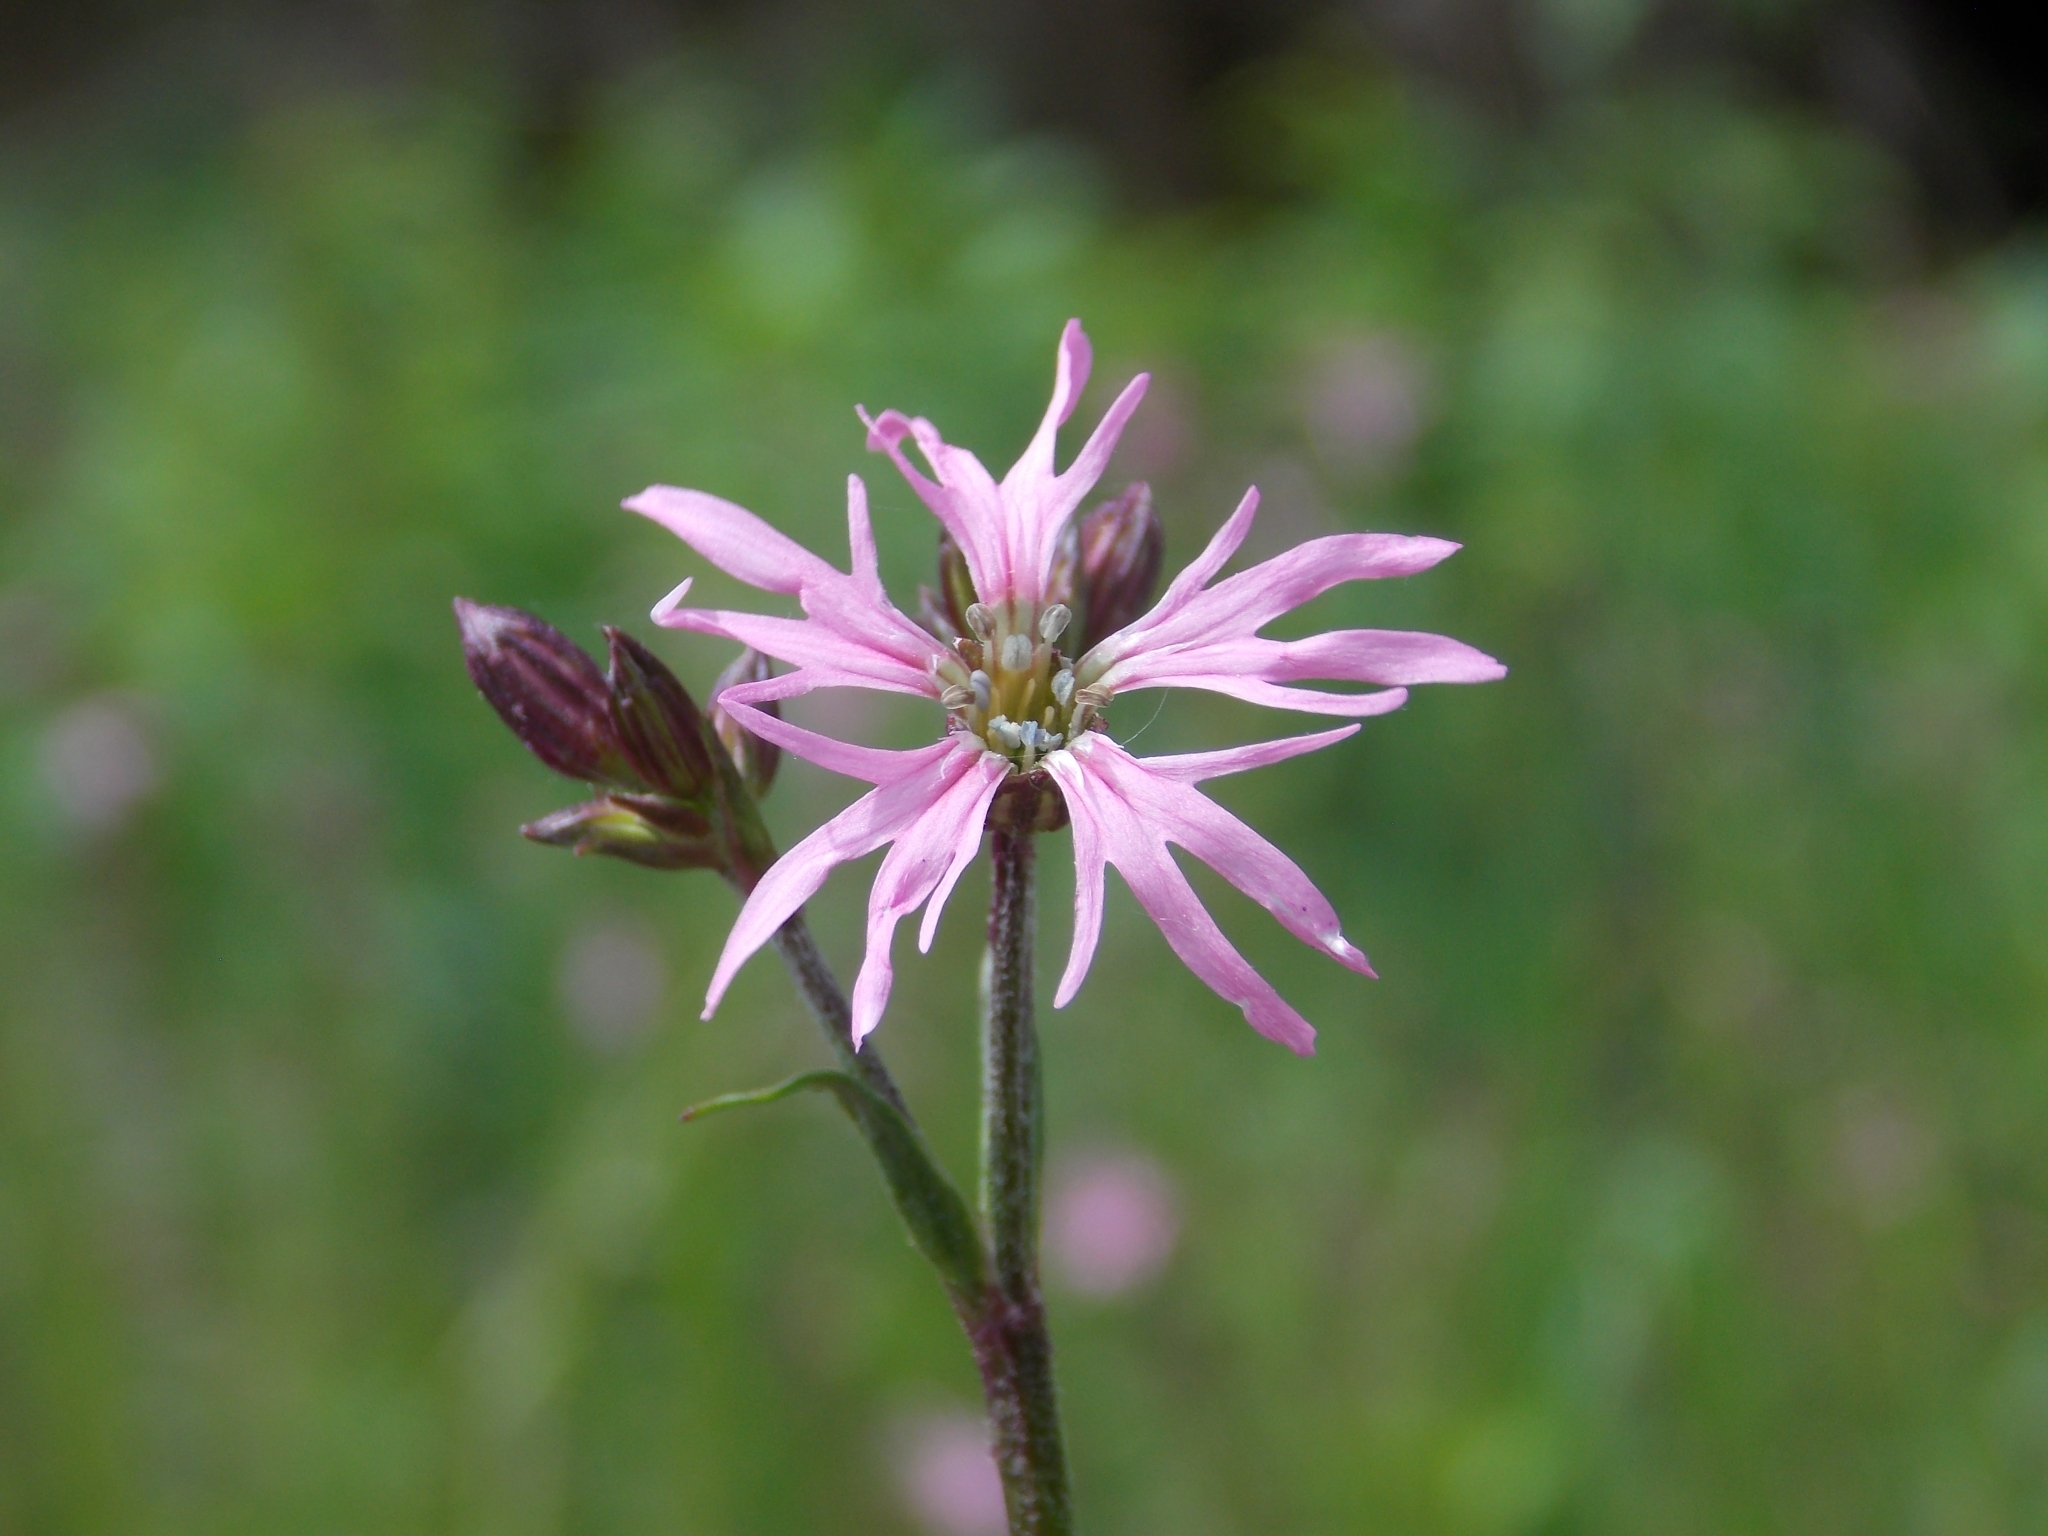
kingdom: Plantae
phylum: Tracheophyta
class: Magnoliopsida
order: Caryophyllales
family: Caryophyllaceae
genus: Silene
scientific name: Silene flos-cuculi
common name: Ragged-robin
